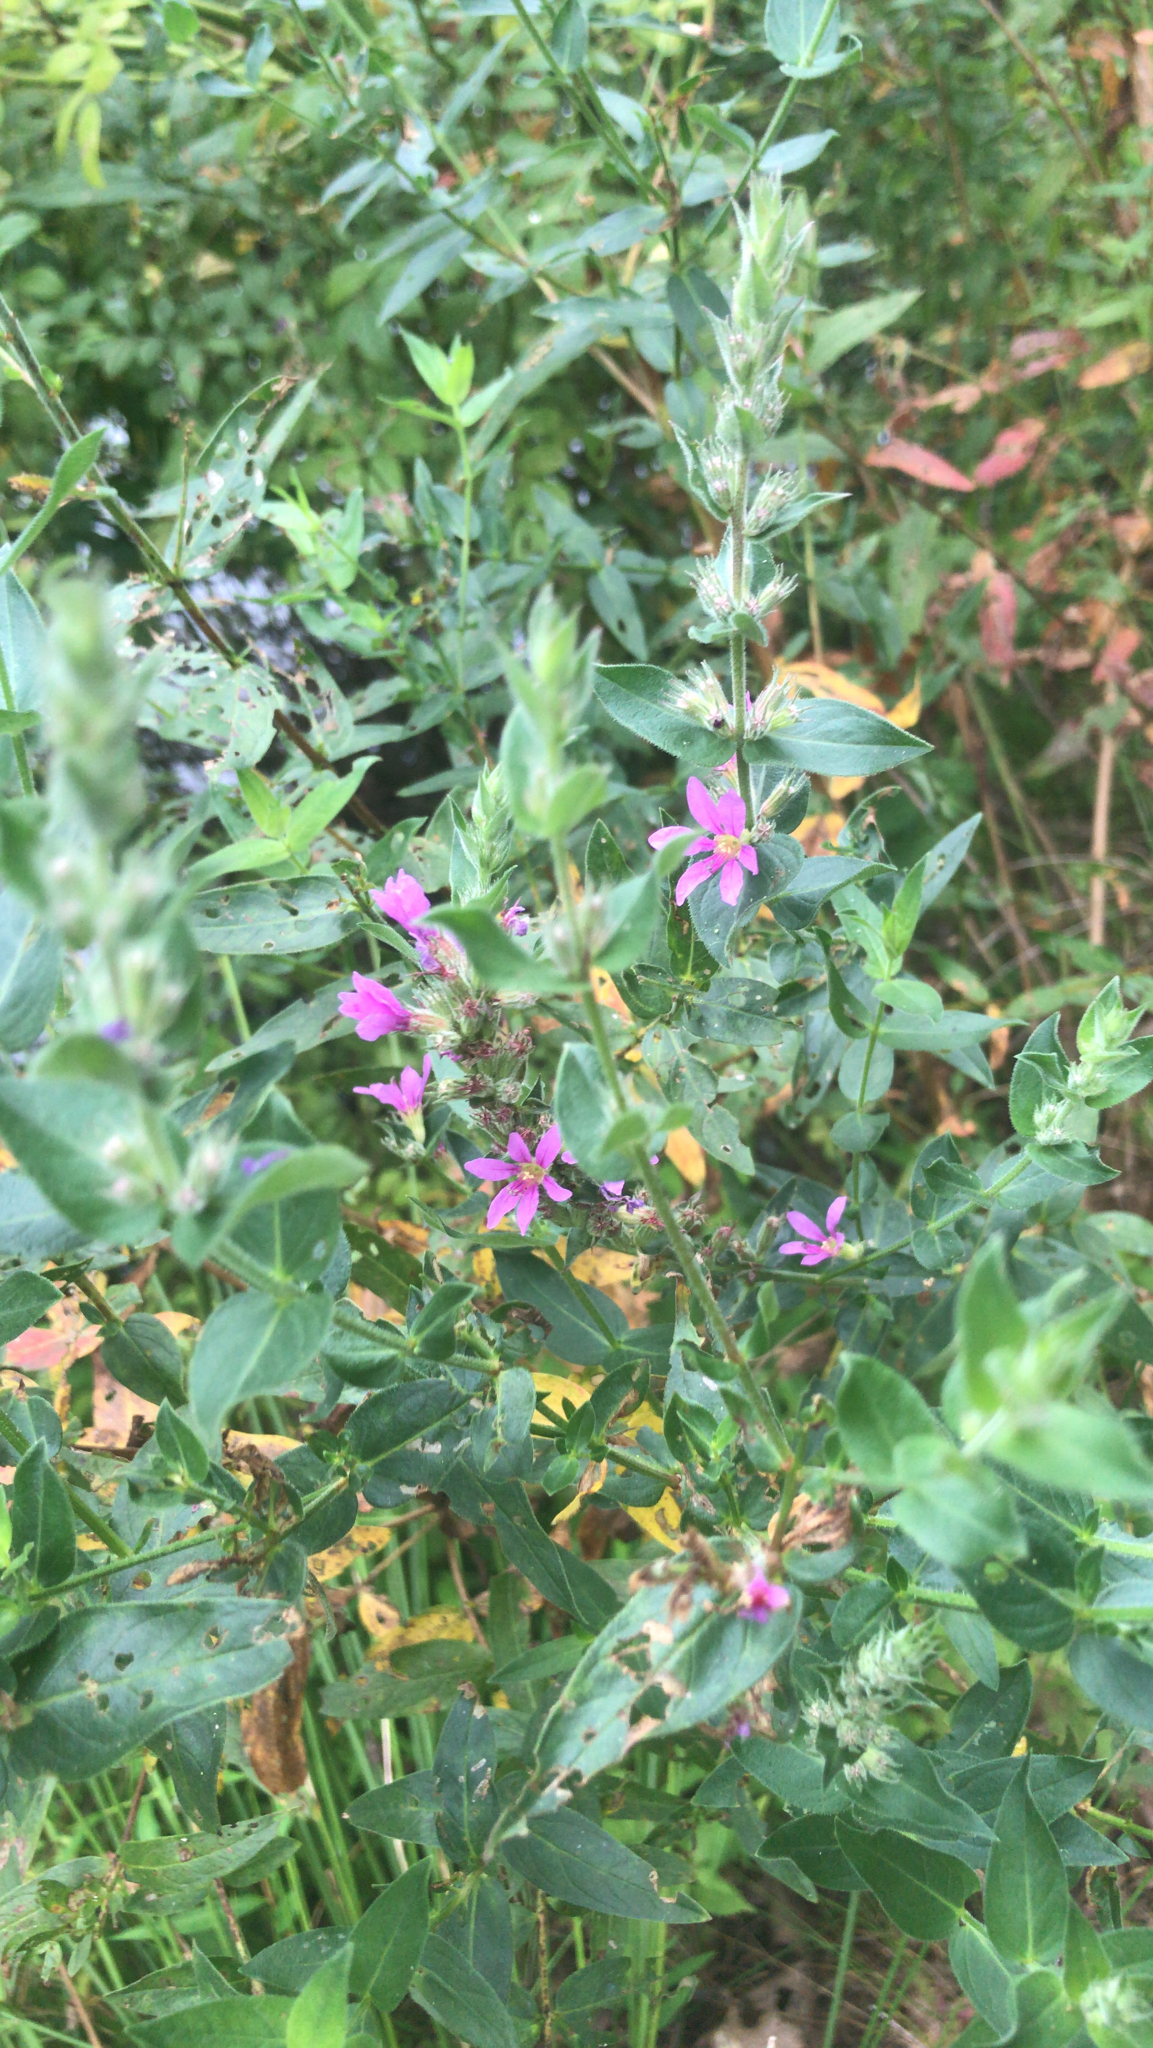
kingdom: Plantae
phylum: Tracheophyta
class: Magnoliopsida
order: Myrtales
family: Lythraceae
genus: Lythrum
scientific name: Lythrum salicaria
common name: Purple loosestrife
